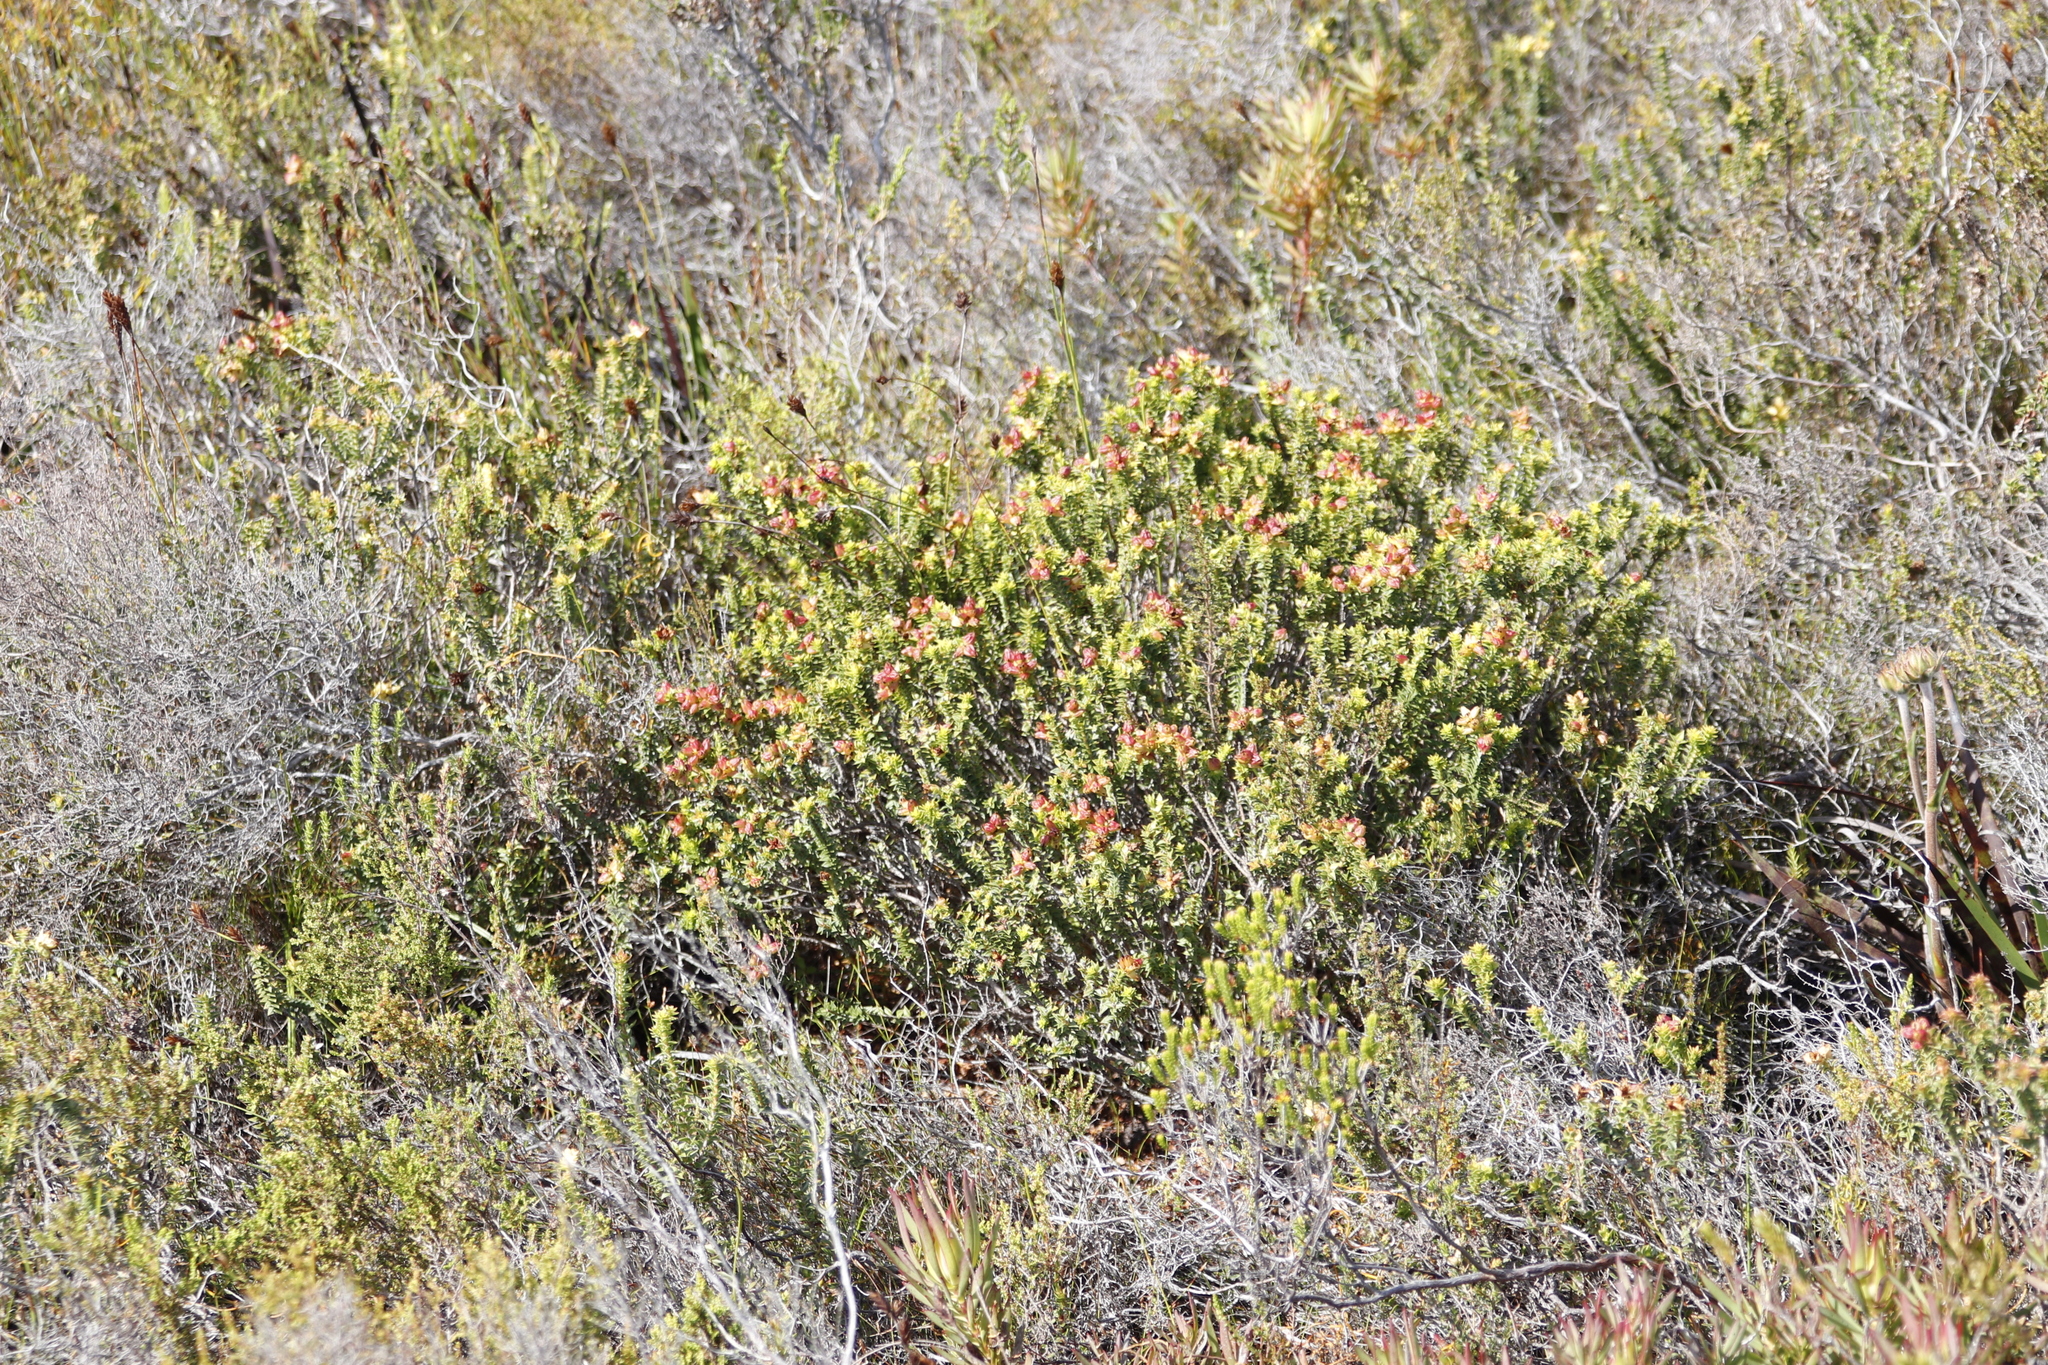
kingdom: Plantae
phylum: Tracheophyta
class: Magnoliopsida
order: Myrtales
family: Penaeaceae
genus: Penaea
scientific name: Penaea mucronata
